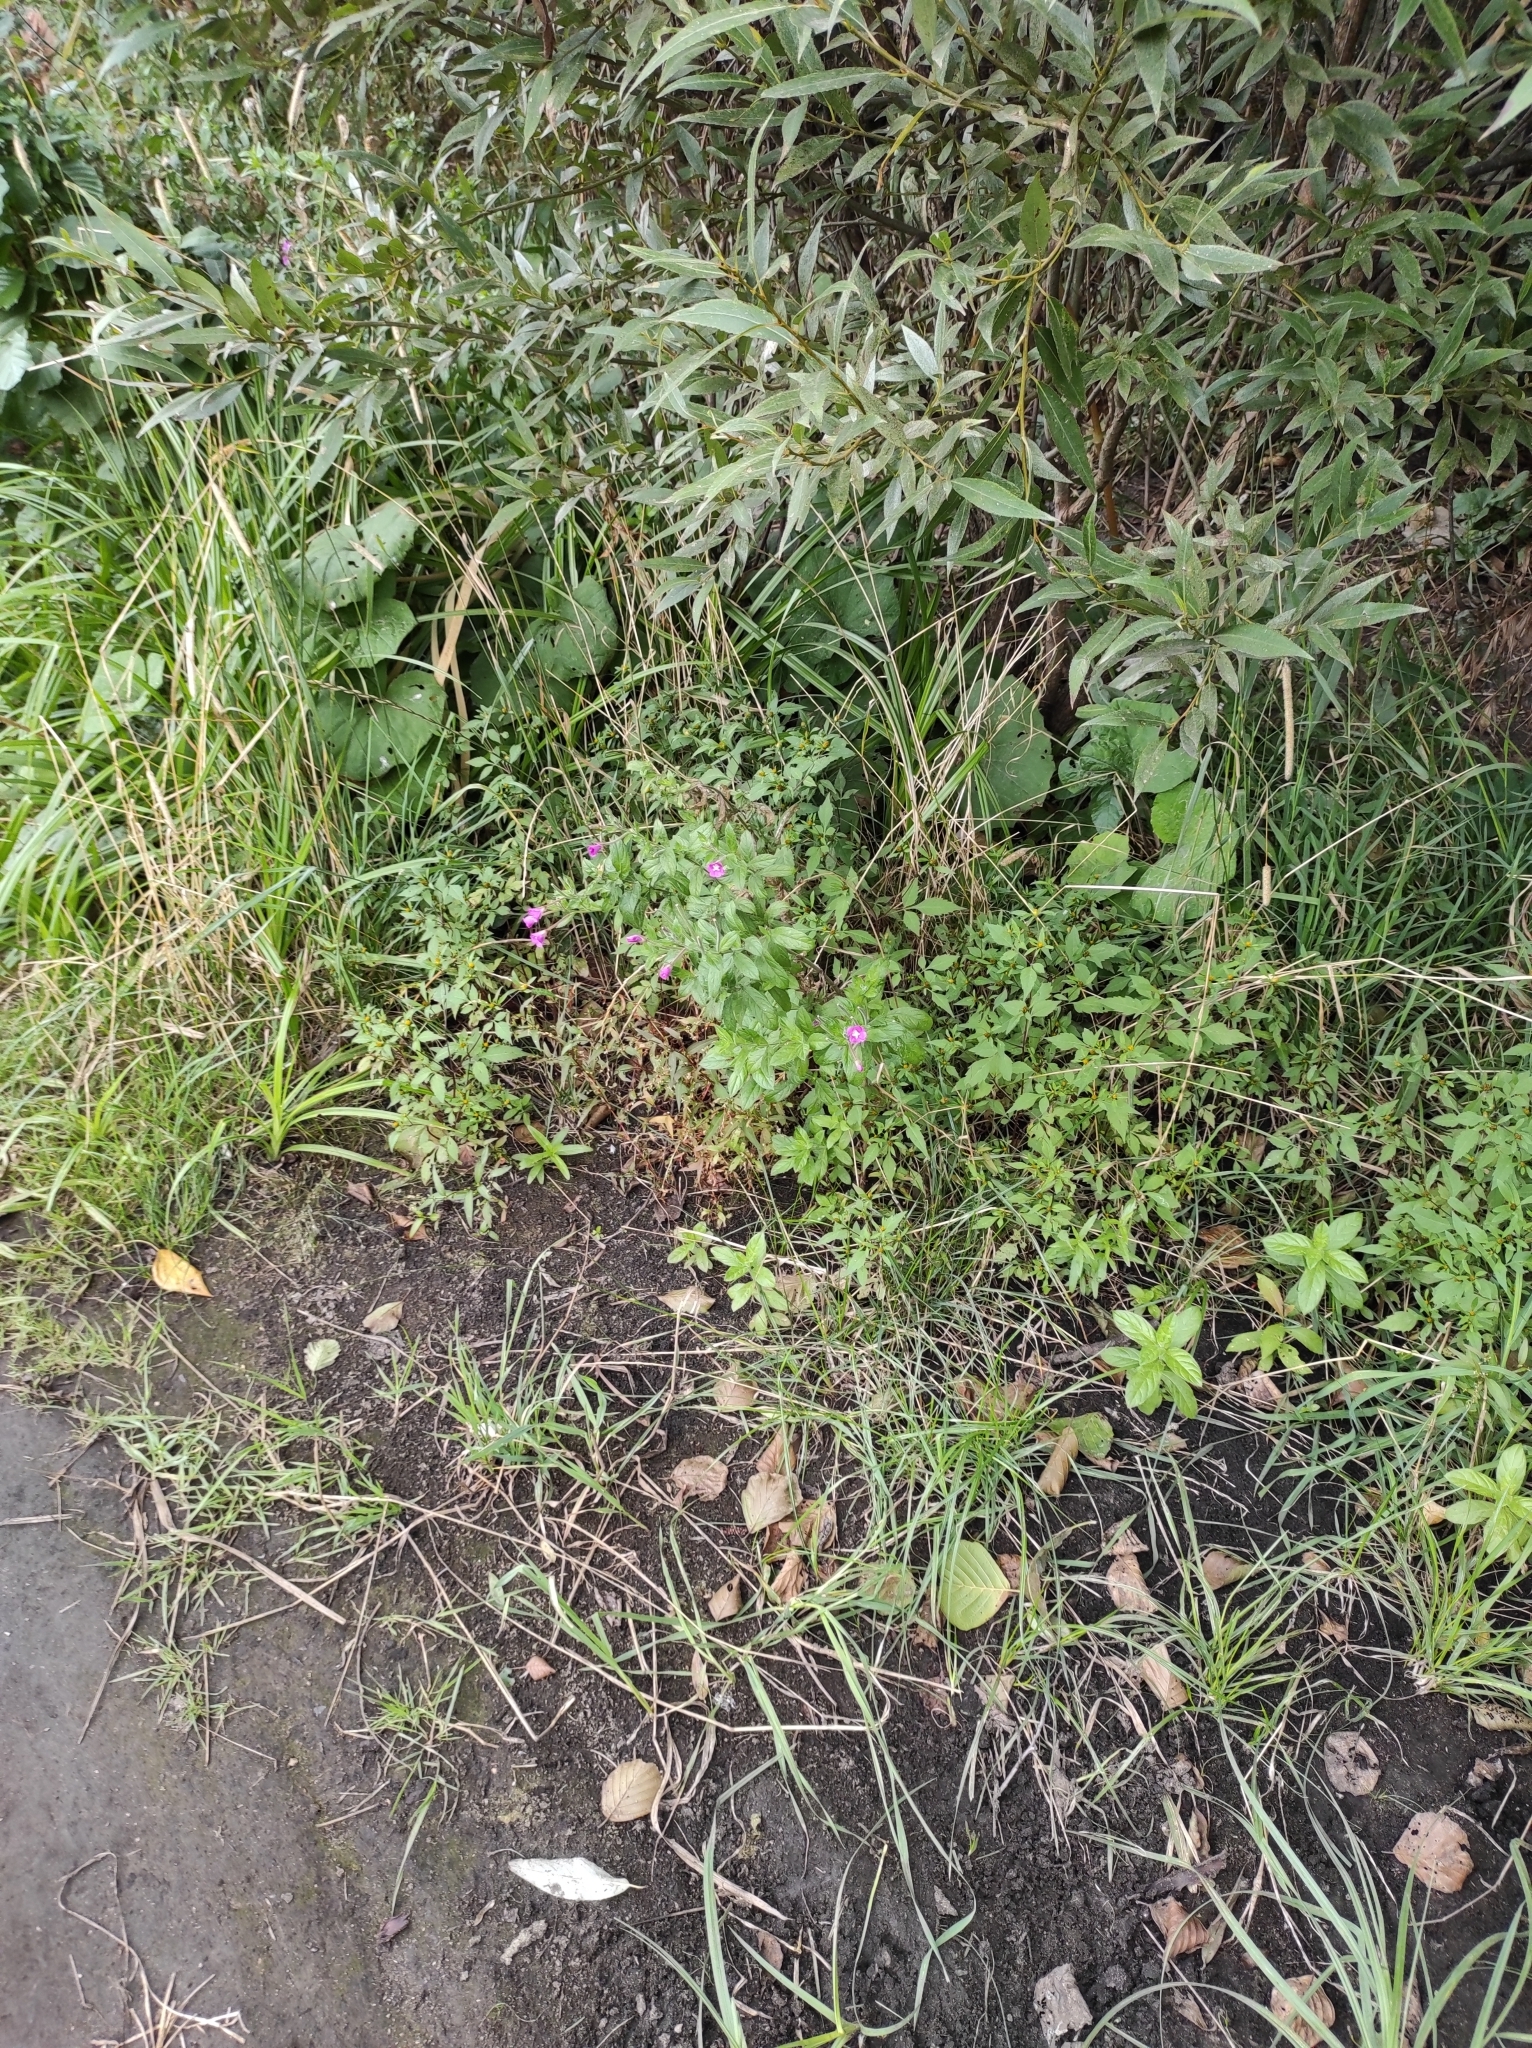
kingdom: Plantae
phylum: Tracheophyta
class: Magnoliopsida
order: Myrtales
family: Onagraceae
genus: Epilobium
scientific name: Epilobium hirsutum
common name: Great willowherb
